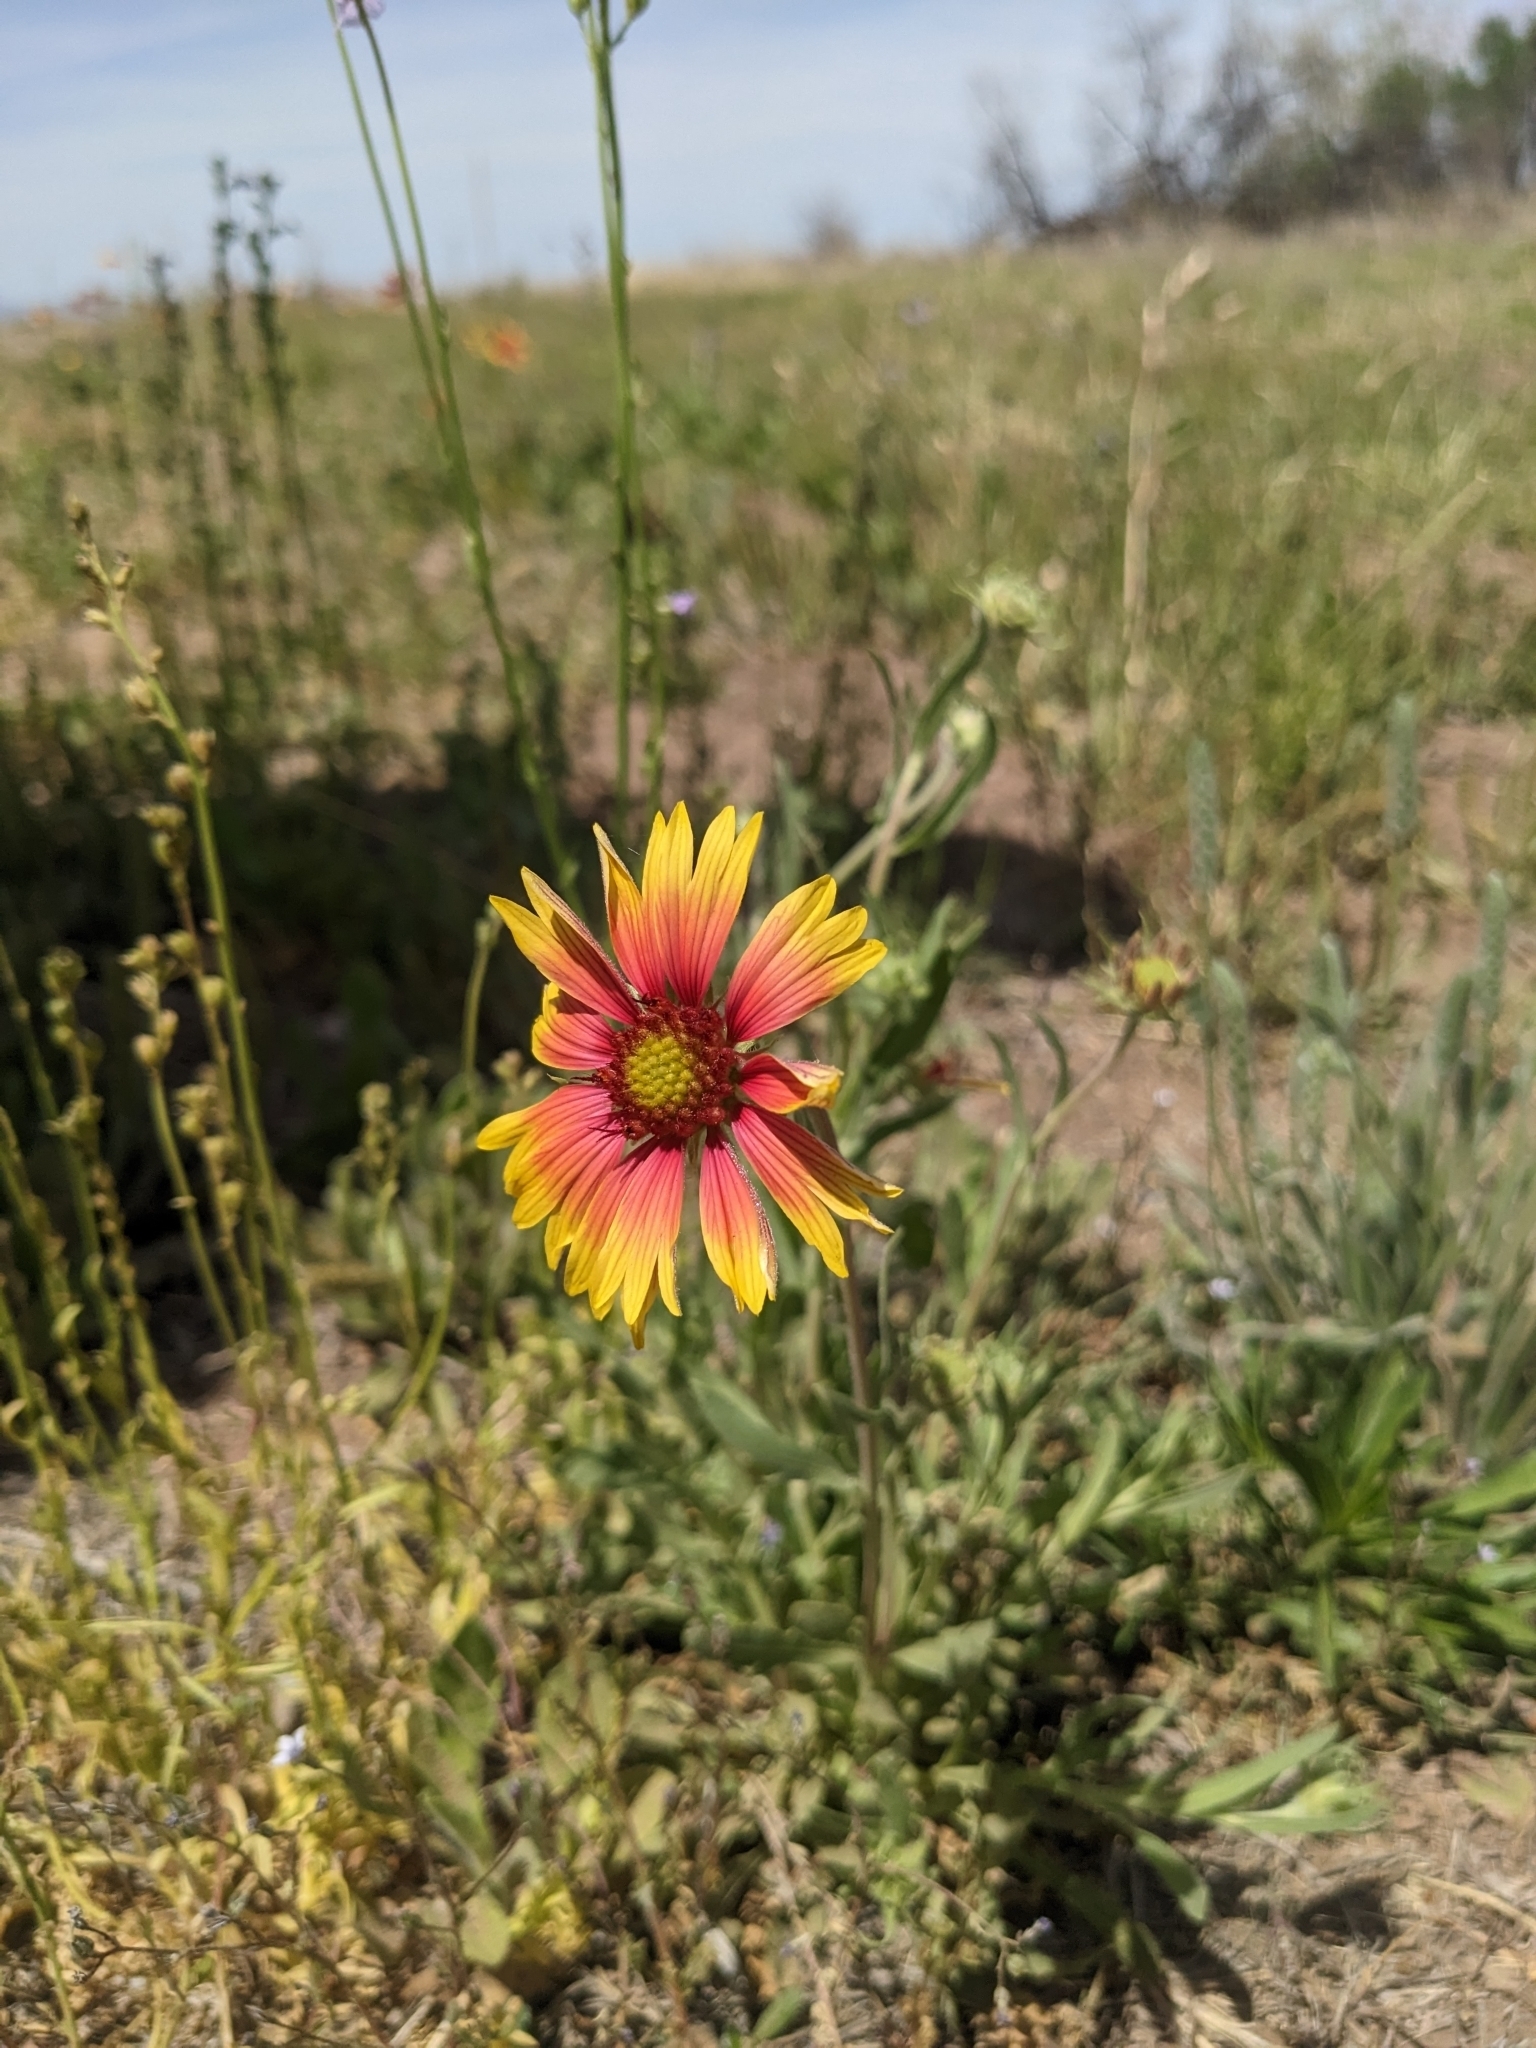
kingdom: Plantae
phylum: Tracheophyta
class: Magnoliopsida
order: Asterales
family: Asteraceae
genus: Gaillardia
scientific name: Gaillardia pulchella
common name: Firewheel
